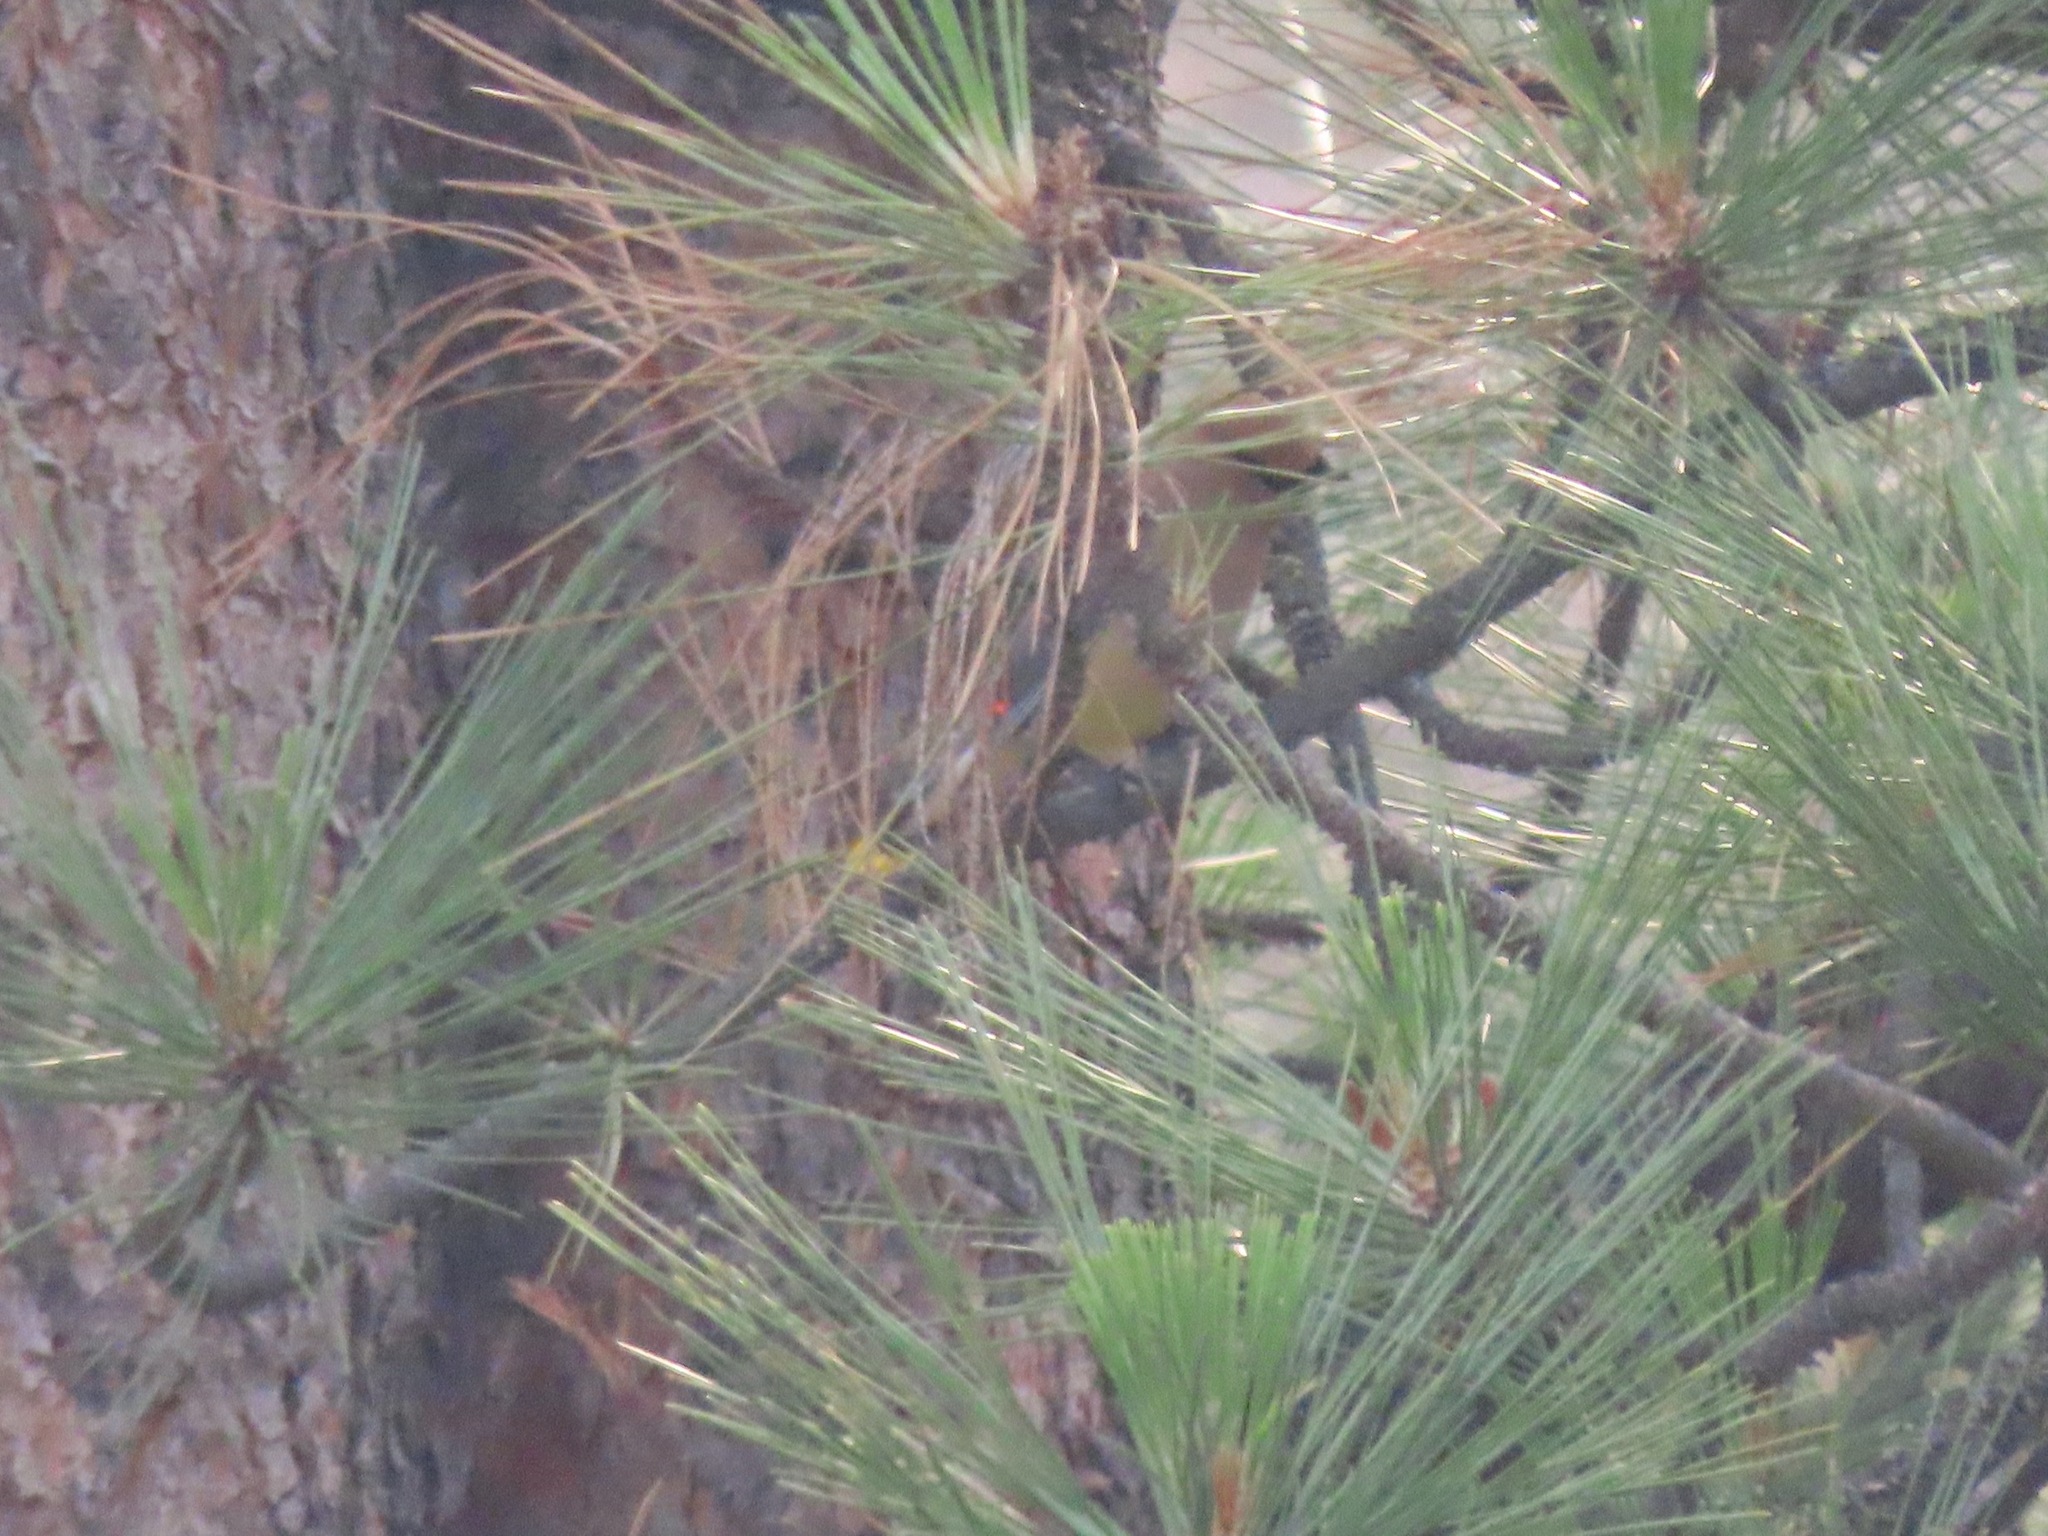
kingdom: Animalia
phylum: Chordata
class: Aves
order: Passeriformes
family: Bombycillidae
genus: Bombycilla
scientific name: Bombycilla cedrorum
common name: Cedar waxwing
